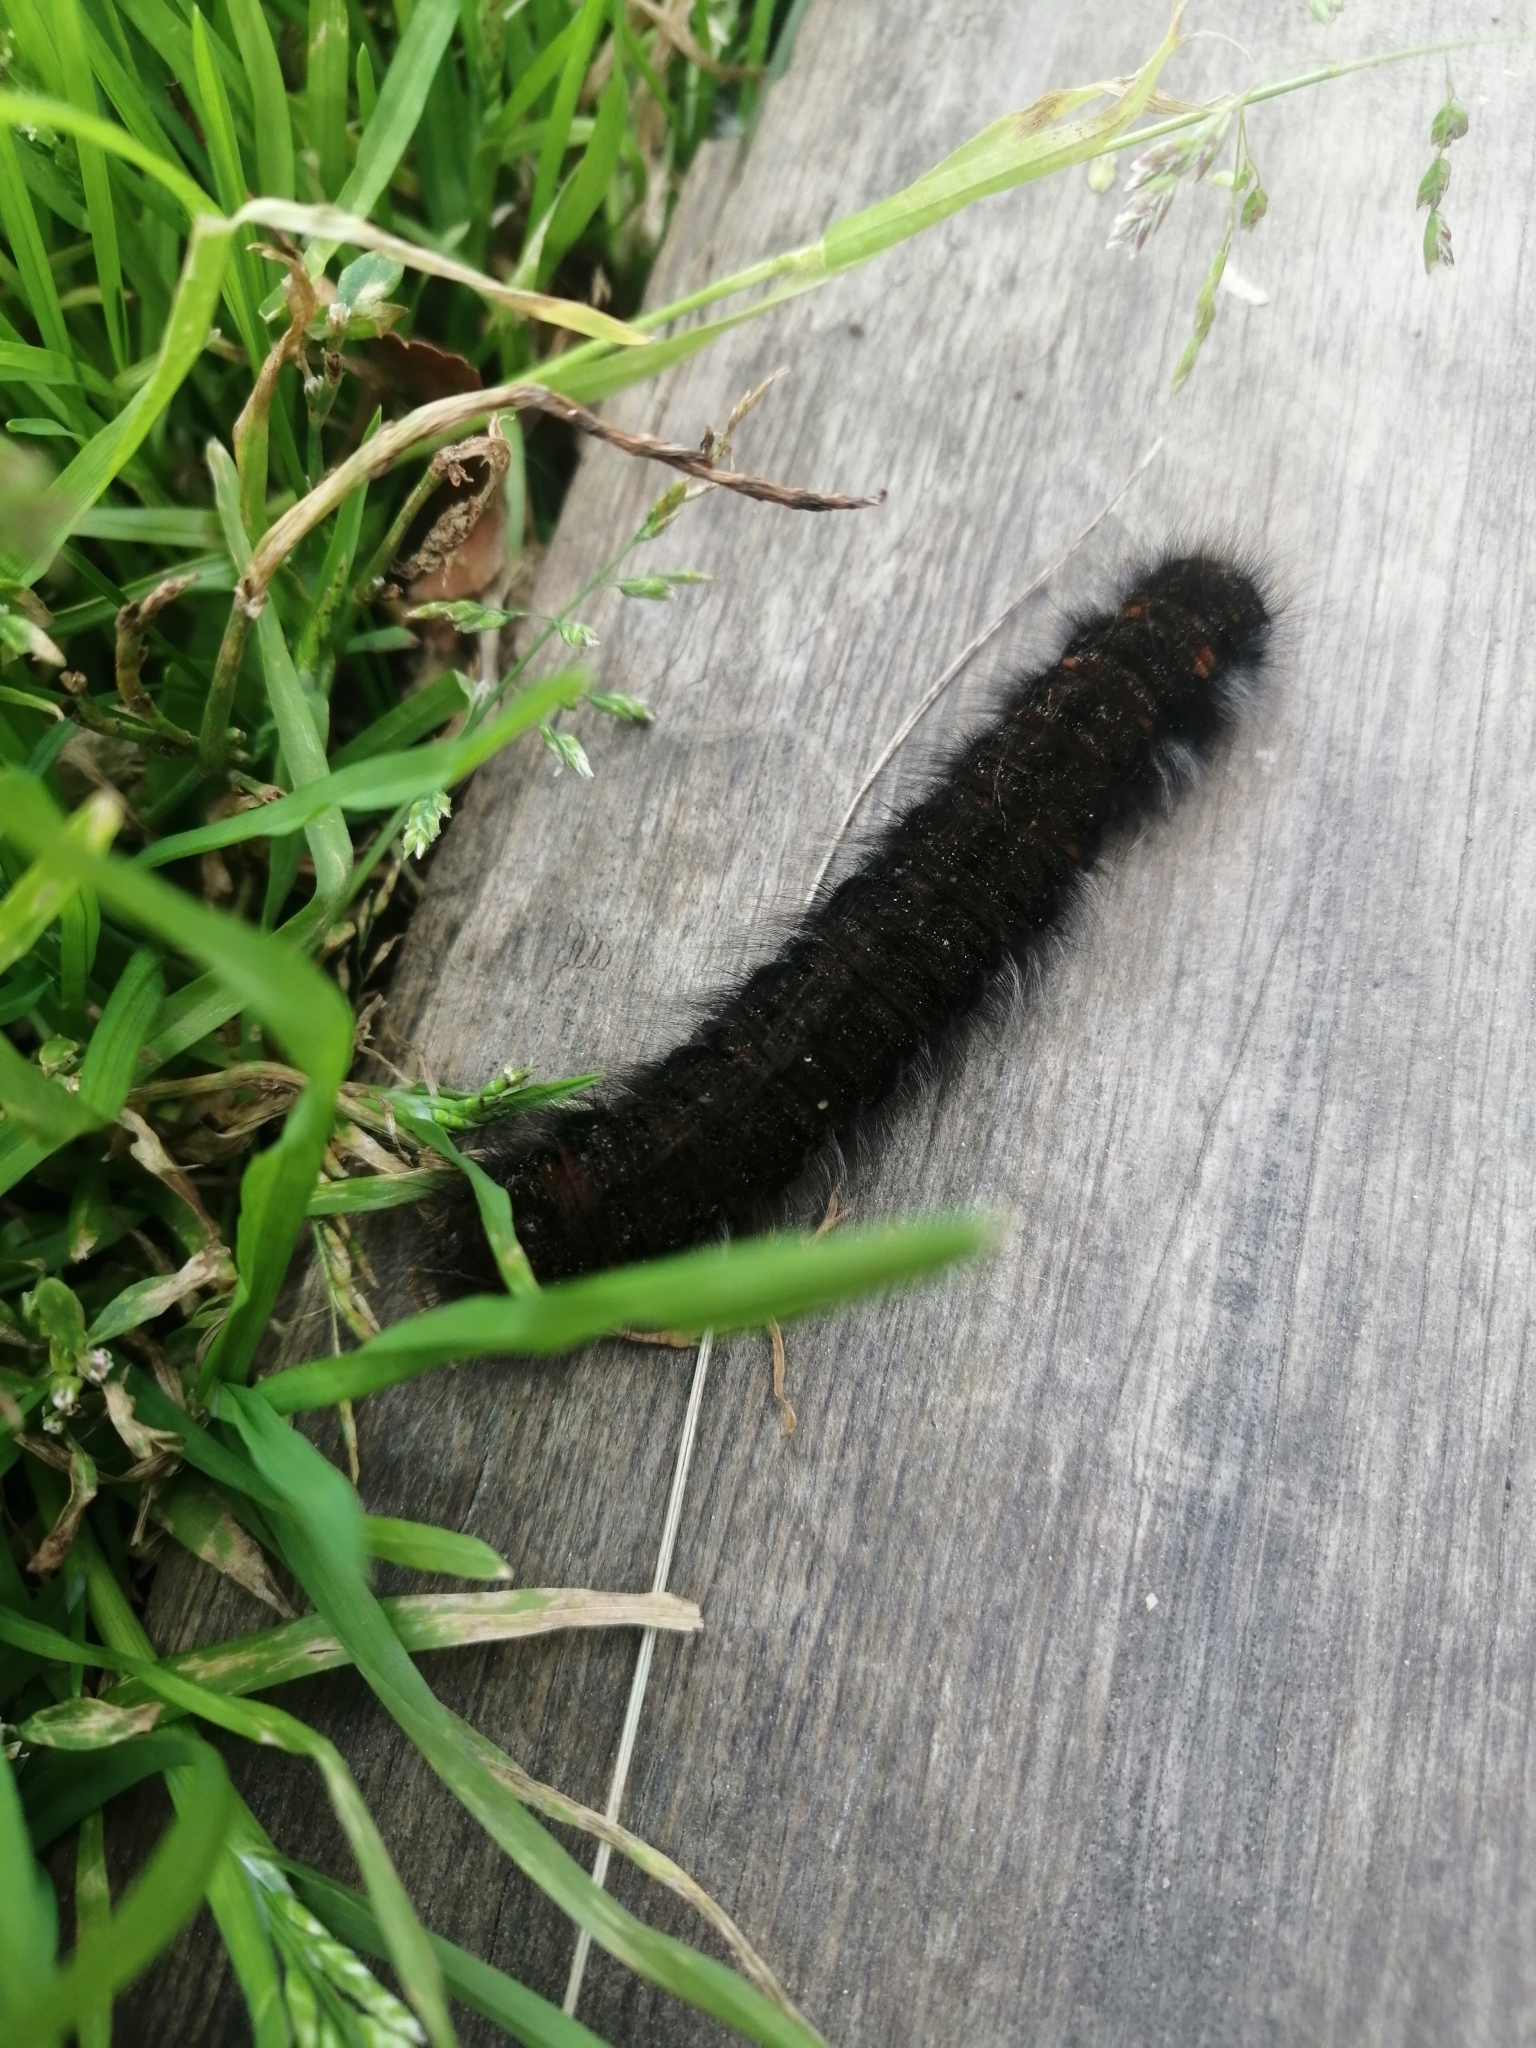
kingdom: Animalia
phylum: Arthropoda
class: Insecta
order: Lepidoptera
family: Lasiocampidae
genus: Macrothylacia
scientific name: Macrothylacia rubi
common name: Fox moth
